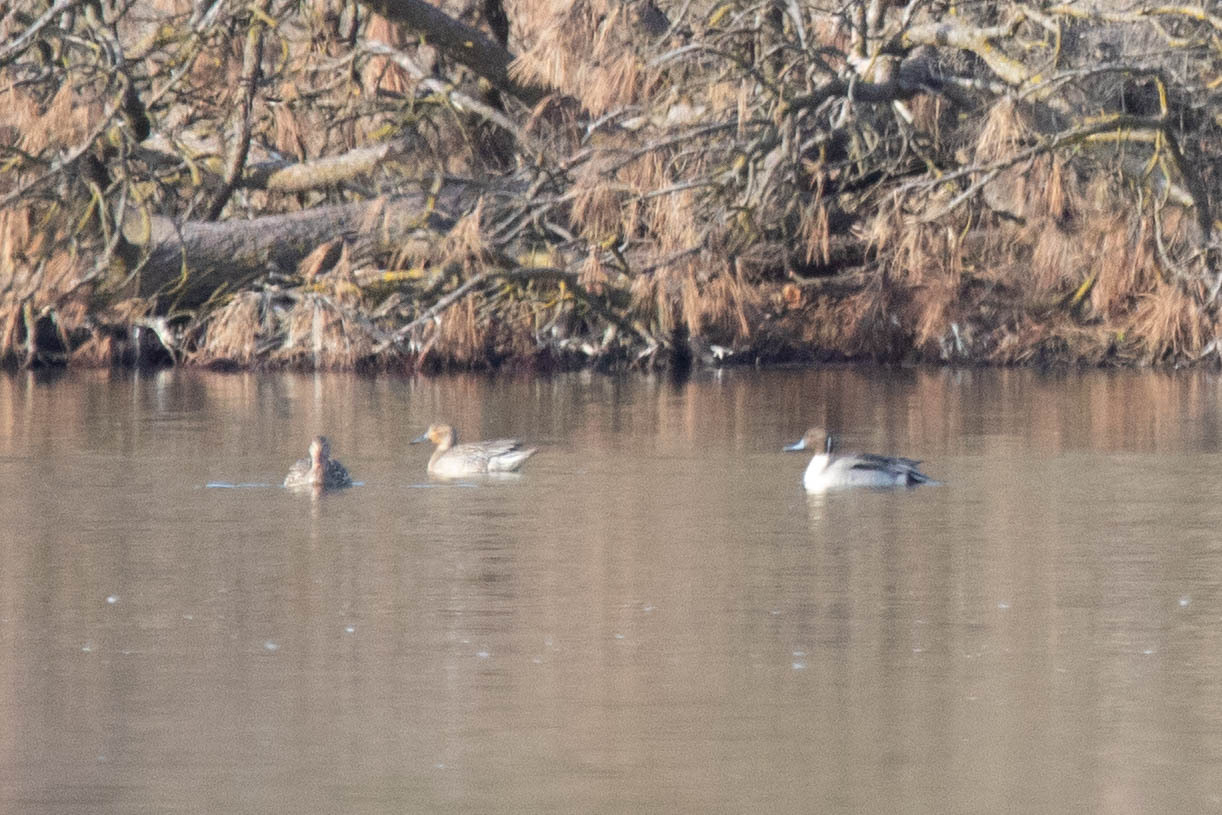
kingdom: Animalia
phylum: Chordata
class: Aves
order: Anseriformes
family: Anatidae
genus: Anas
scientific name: Anas acuta
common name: Northern pintail
